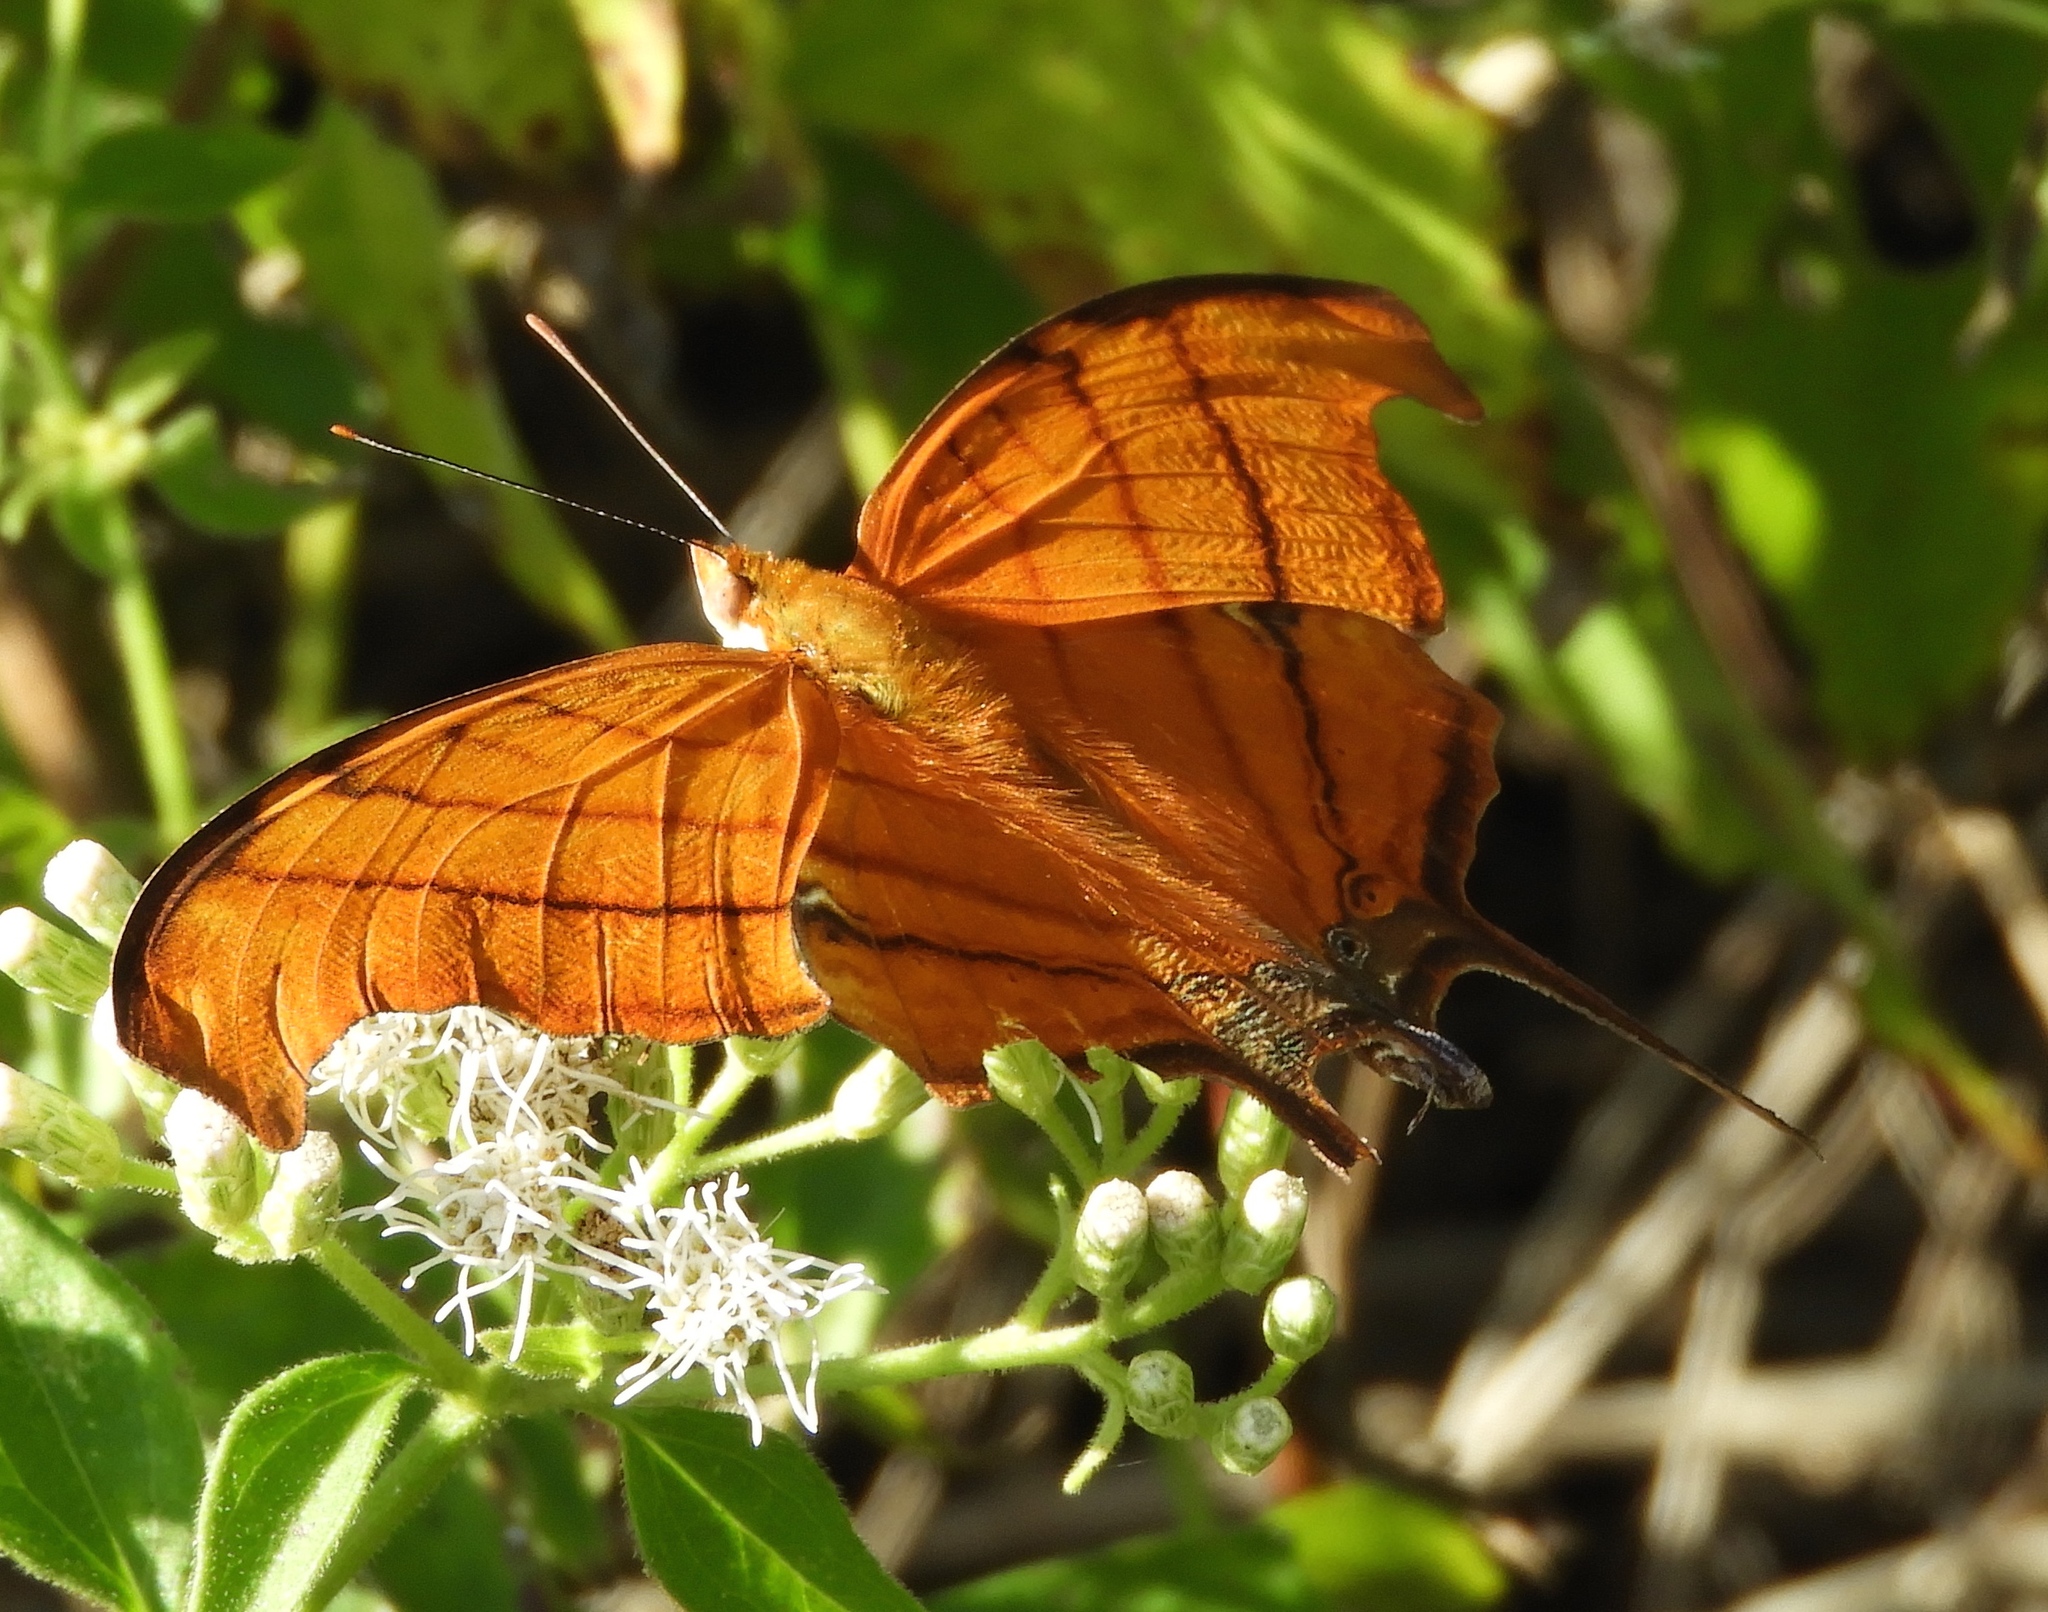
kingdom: Animalia
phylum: Arthropoda
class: Insecta
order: Lepidoptera
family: Nymphalidae
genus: Marpesia
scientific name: Marpesia petreus
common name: Red dagger wing
